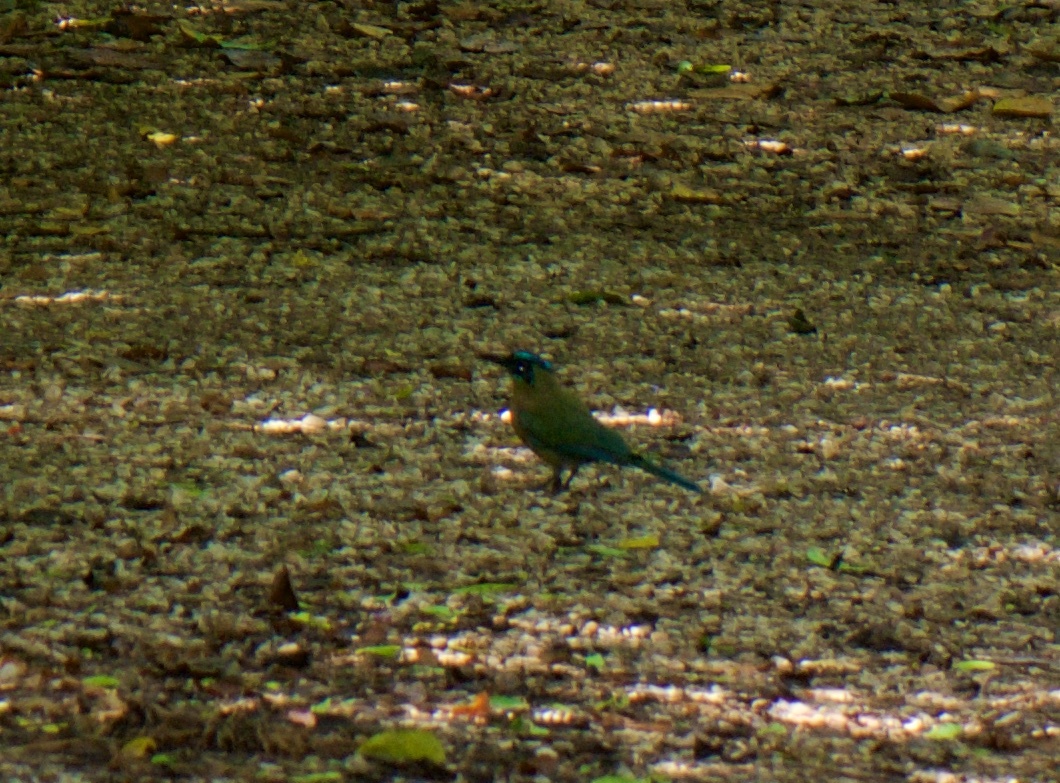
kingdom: Animalia
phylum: Chordata
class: Aves
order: Coraciiformes
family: Momotidae
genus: Momotus
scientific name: Momotus lessonii
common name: Lesson's motmot
